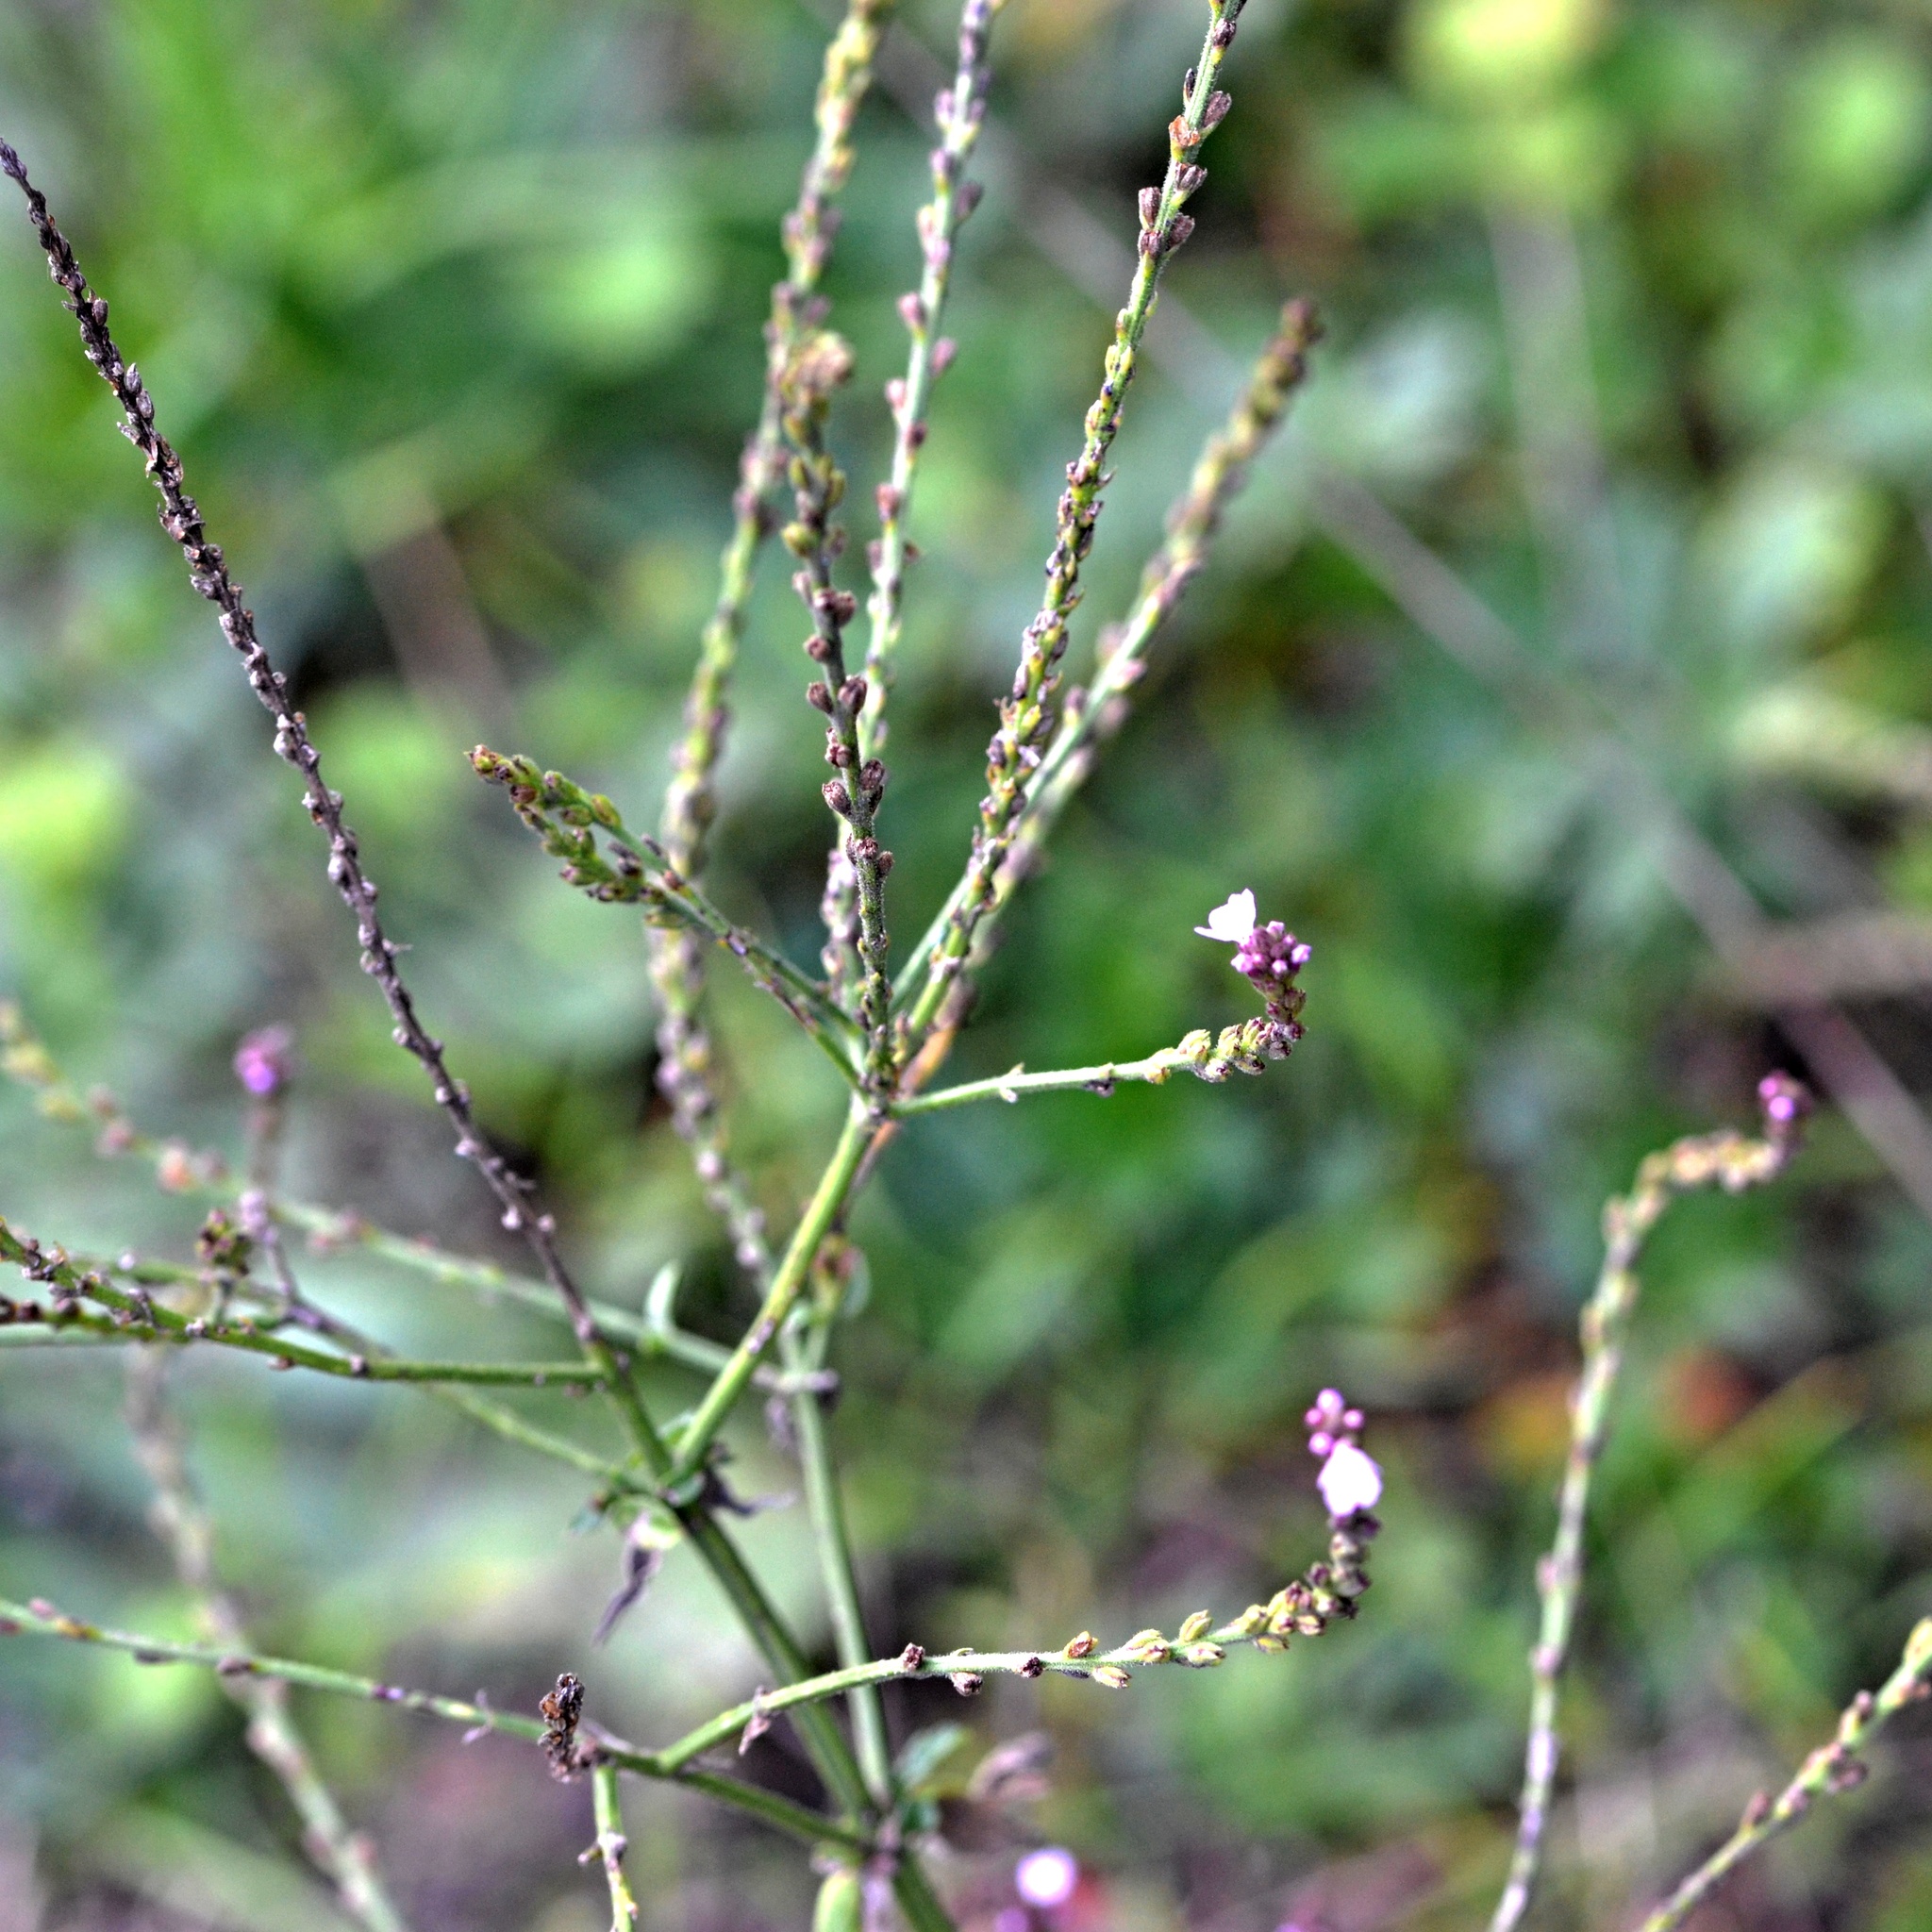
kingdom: Plantae
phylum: Tracheophyta
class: Magnoliopsida
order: Lamiales
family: Verbenaceae
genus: Verbena
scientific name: Verbena officinalis
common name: Vervain
